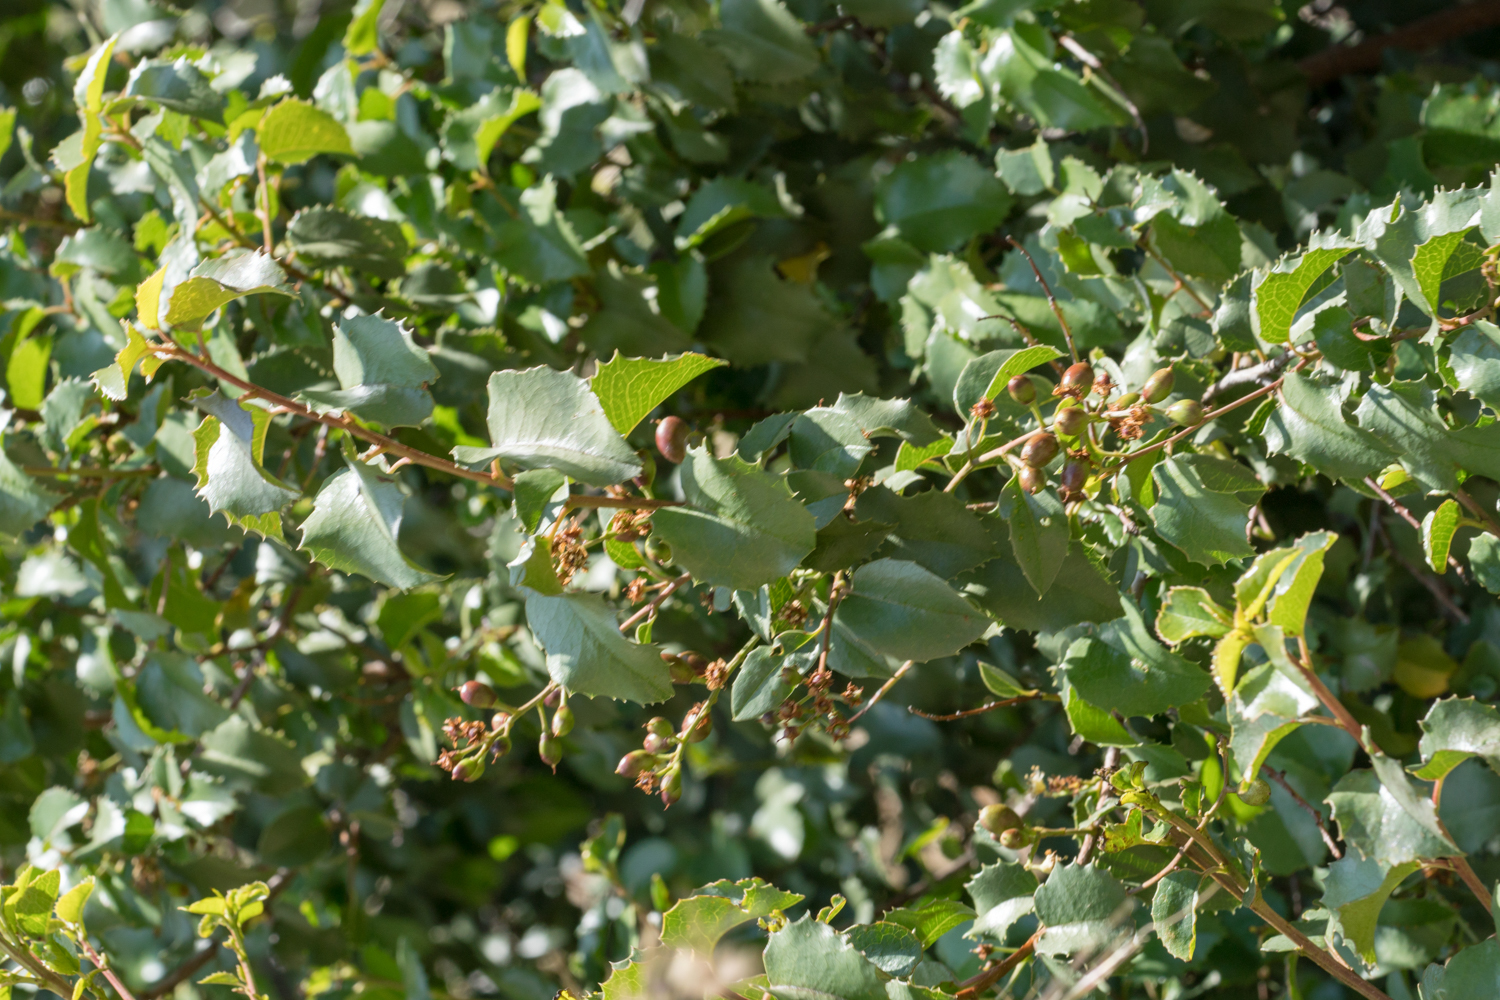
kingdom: Plantae
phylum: Tracheophyta
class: Magnoliopsida
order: Rosales
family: Rosaceae
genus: Prunus
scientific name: Prunus ilicifolia
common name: Hollyleaf cherry
